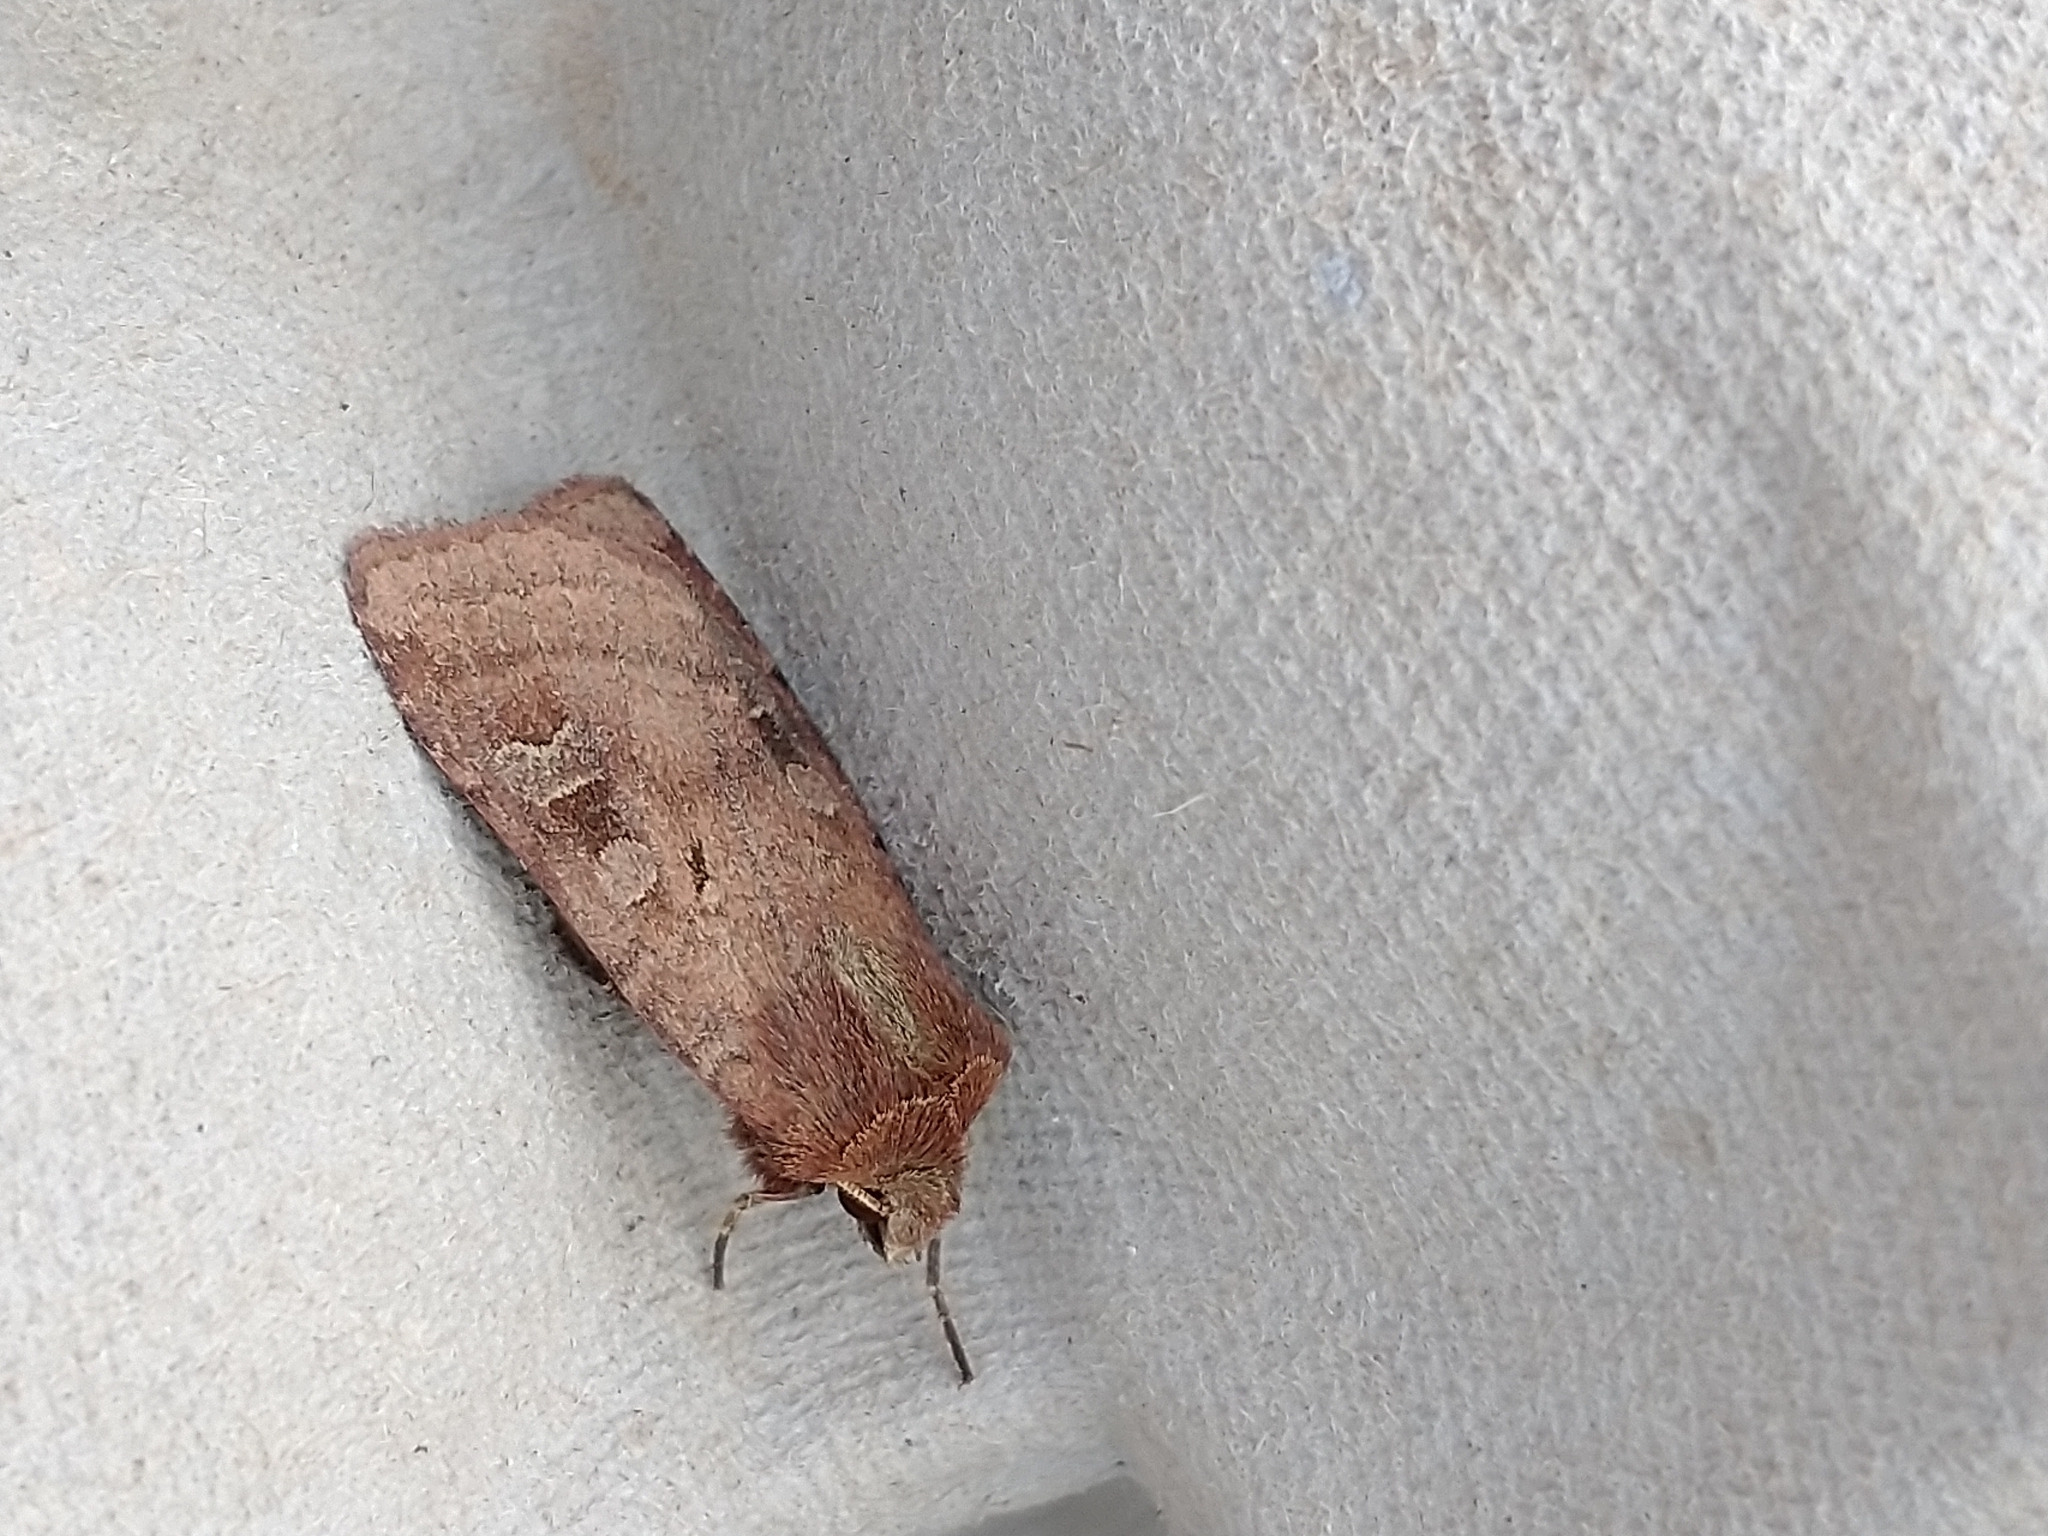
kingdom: Animalia
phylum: Arthropoda
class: Insecta
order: Lepidoptera
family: Noctuidae
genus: Diarsia
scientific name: Diarsia rubi
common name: Small square-spot
